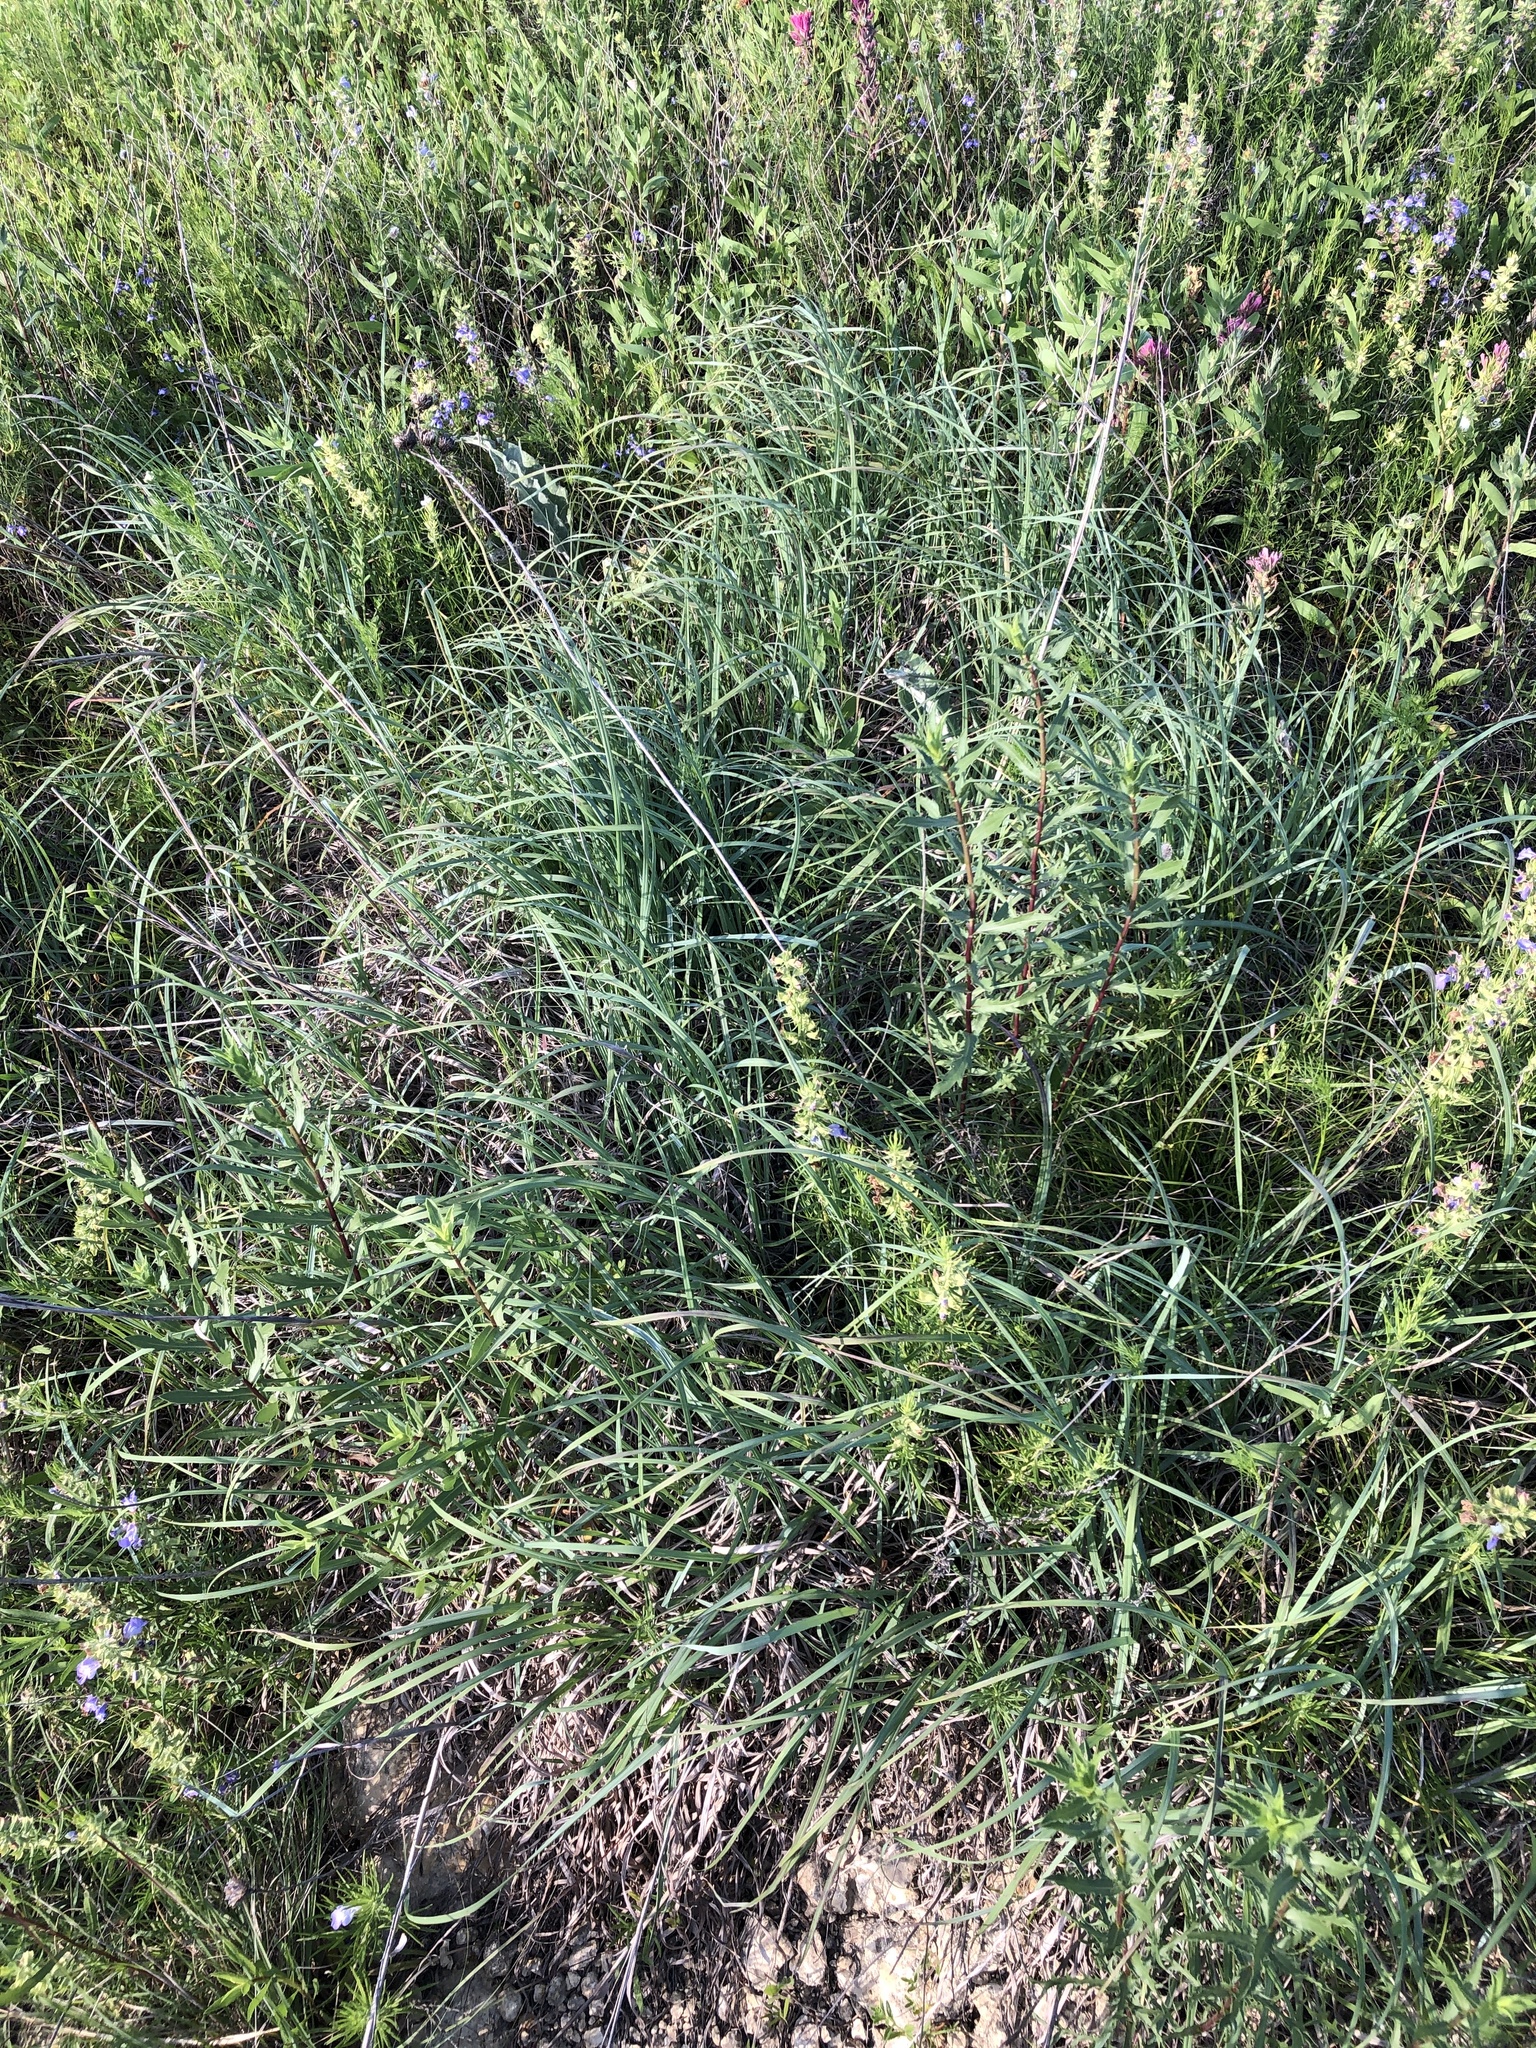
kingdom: Plantae
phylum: Tracheophyta
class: Liliopsida
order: Poales
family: Poaceae
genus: Andropogon
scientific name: Andropogon gerardi
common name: Big bluestem
